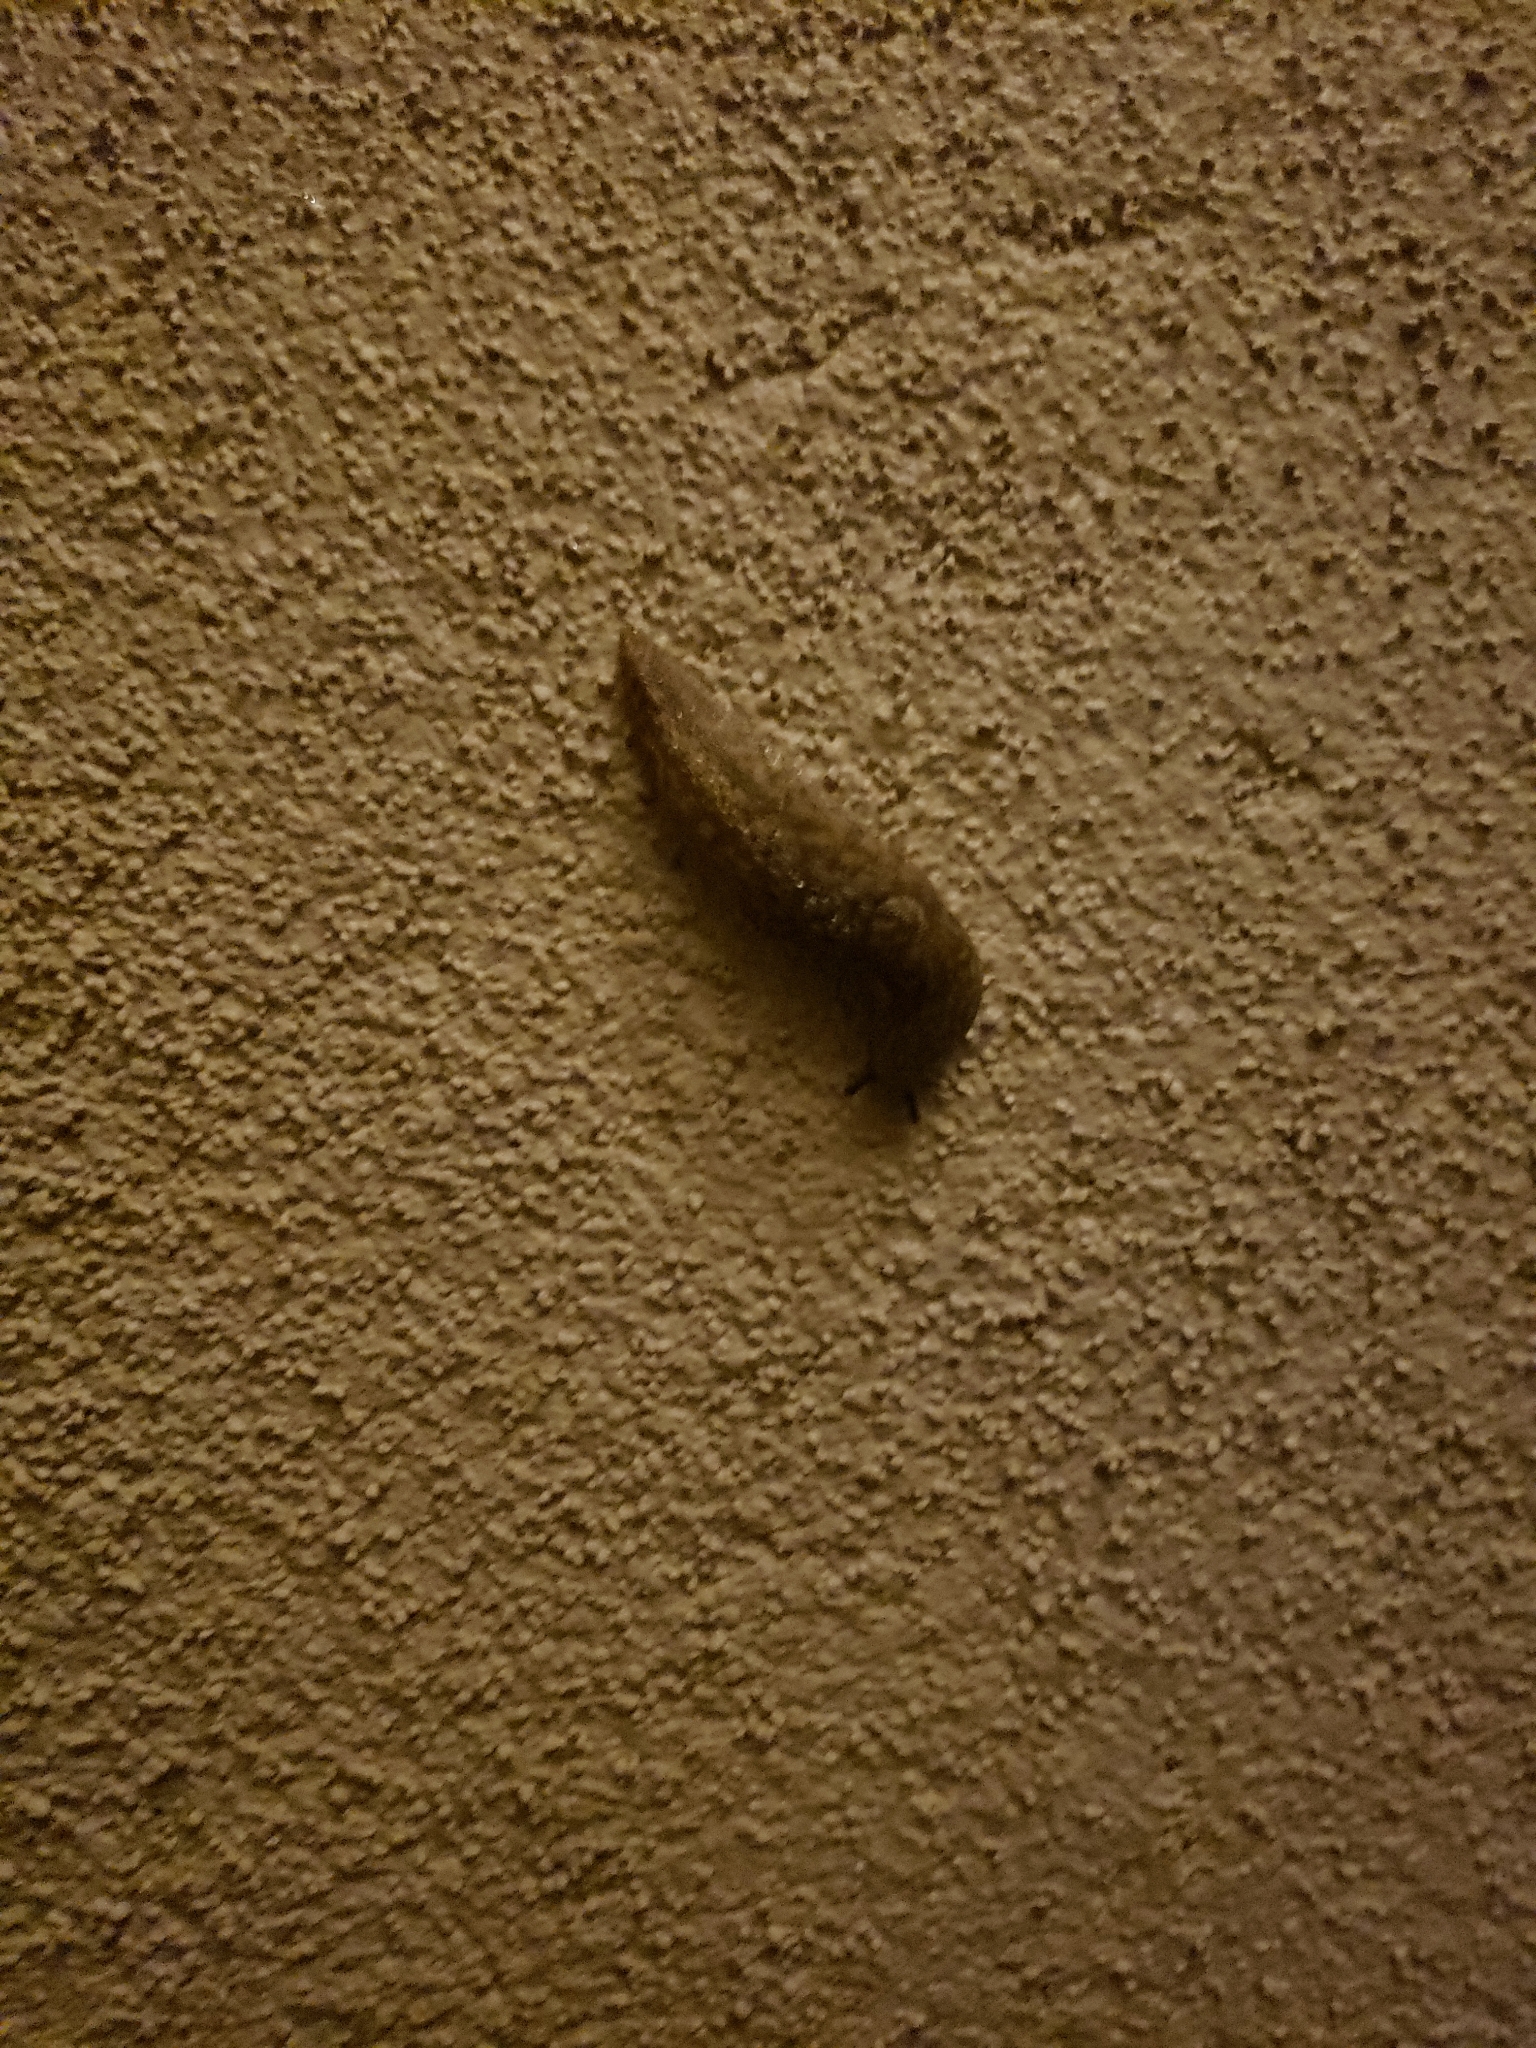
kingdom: Animalia
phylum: Mollusca
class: Gastropoda
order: Stylommatophora
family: Limacidae
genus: Limacus
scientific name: Limacus flavus
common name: Yellow gardenslug
